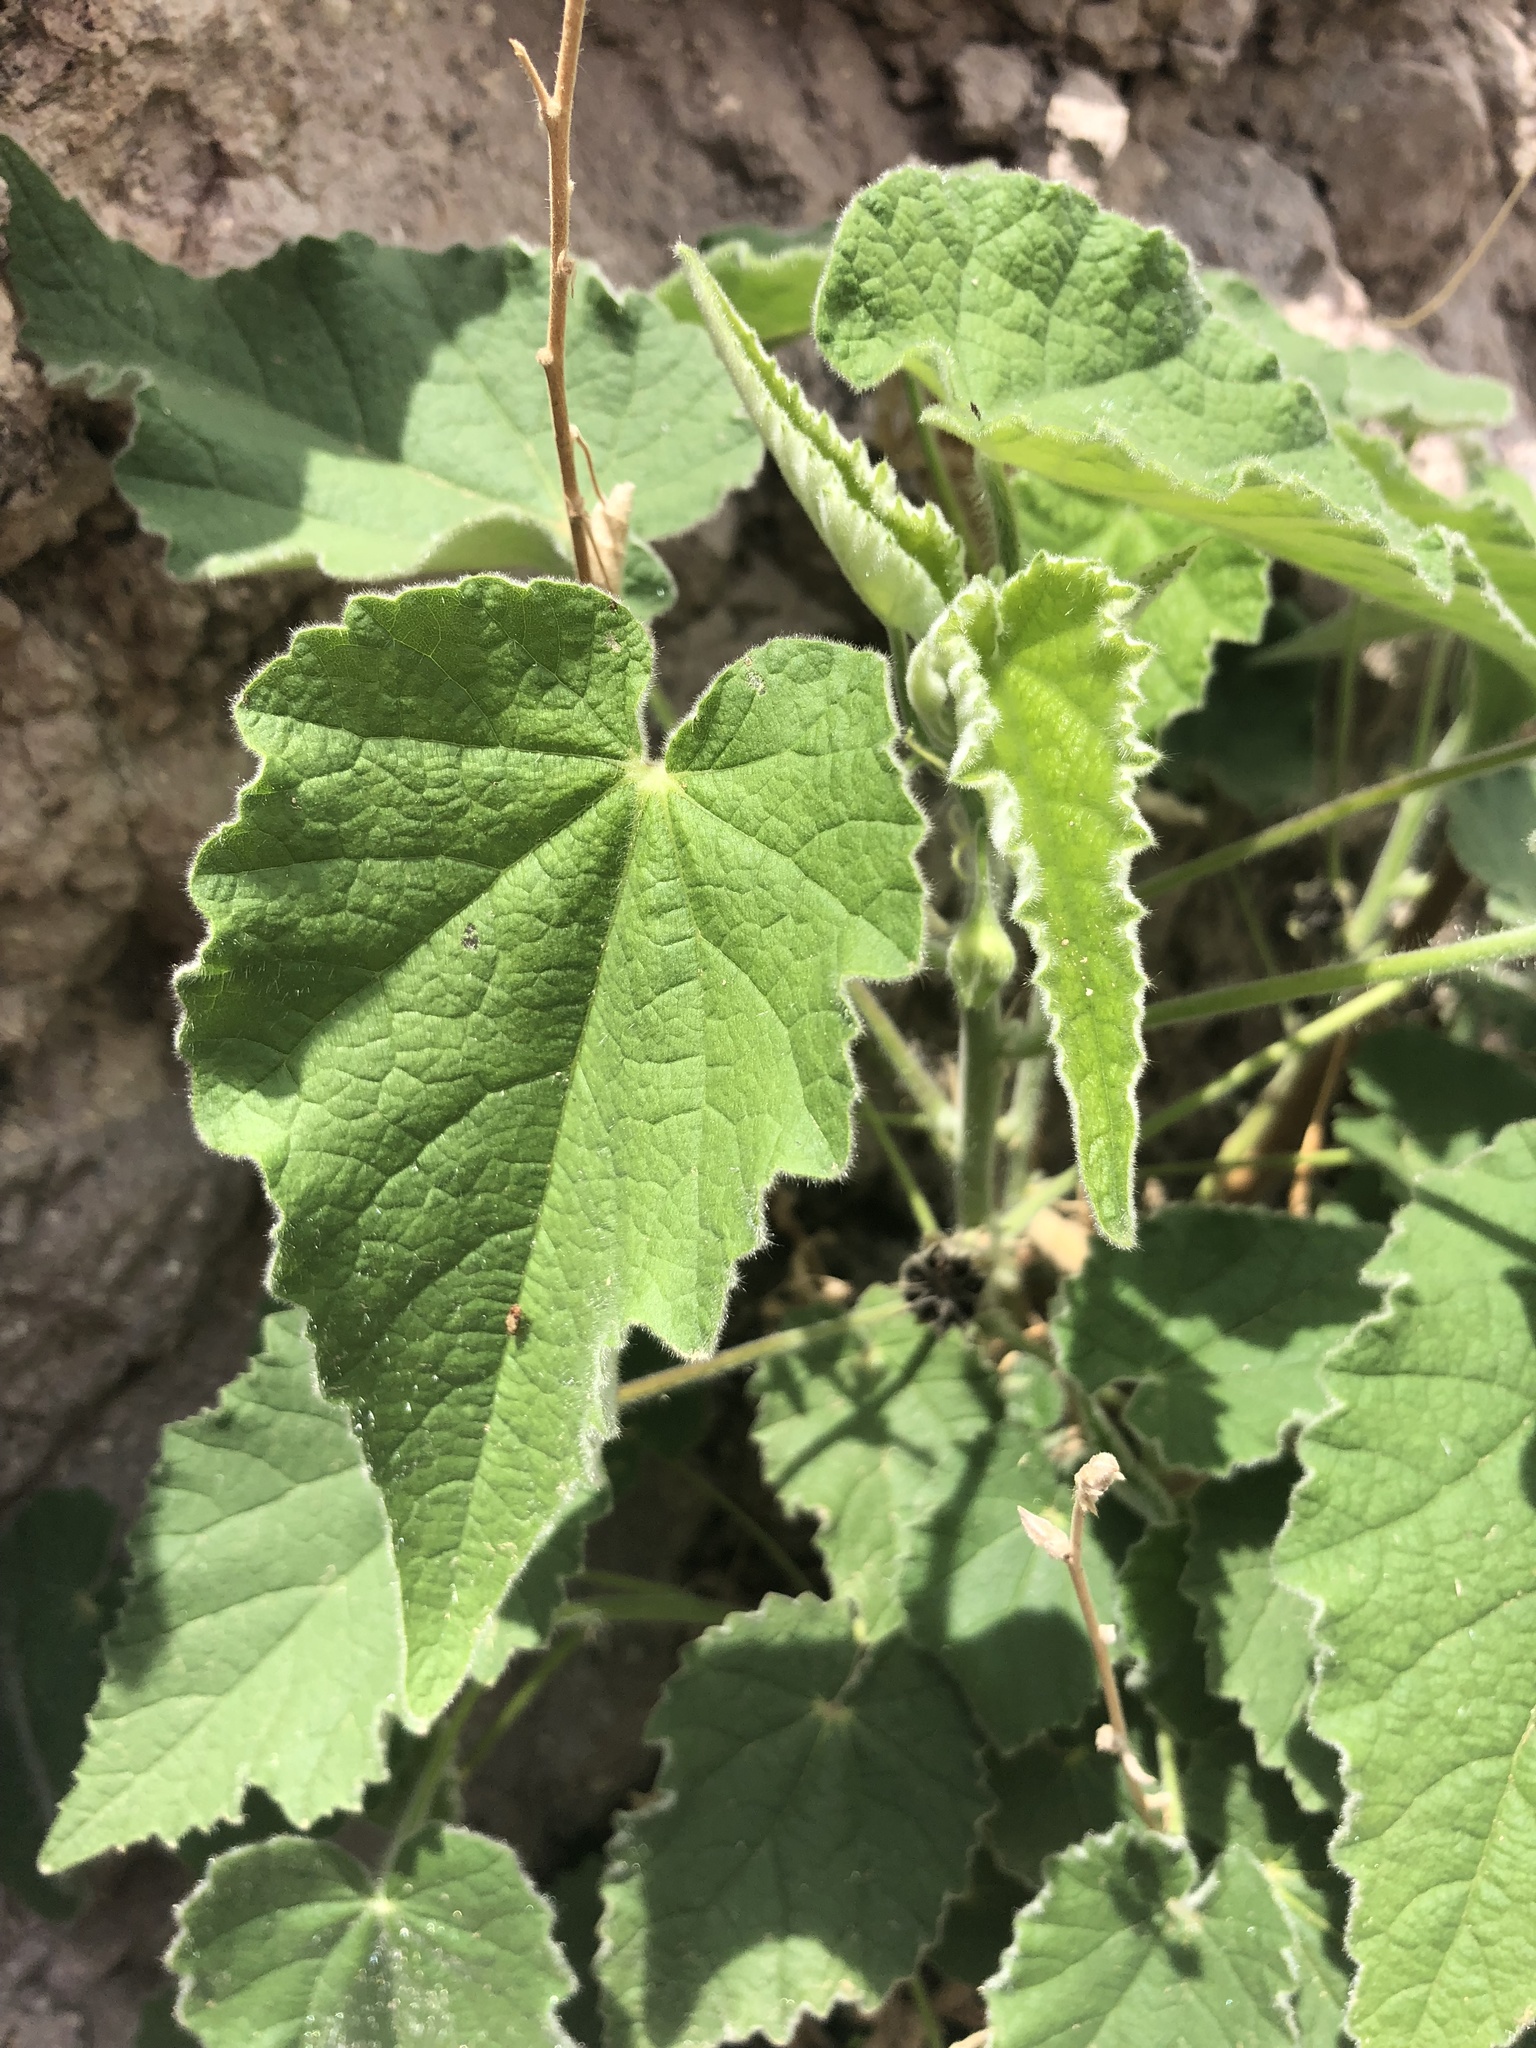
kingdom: Plantae
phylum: Tracheophyta
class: Magnoliopsida
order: Malvales
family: Malvaceae
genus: Abutilon
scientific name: Abutilon parishii
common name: Parish's abutilon
